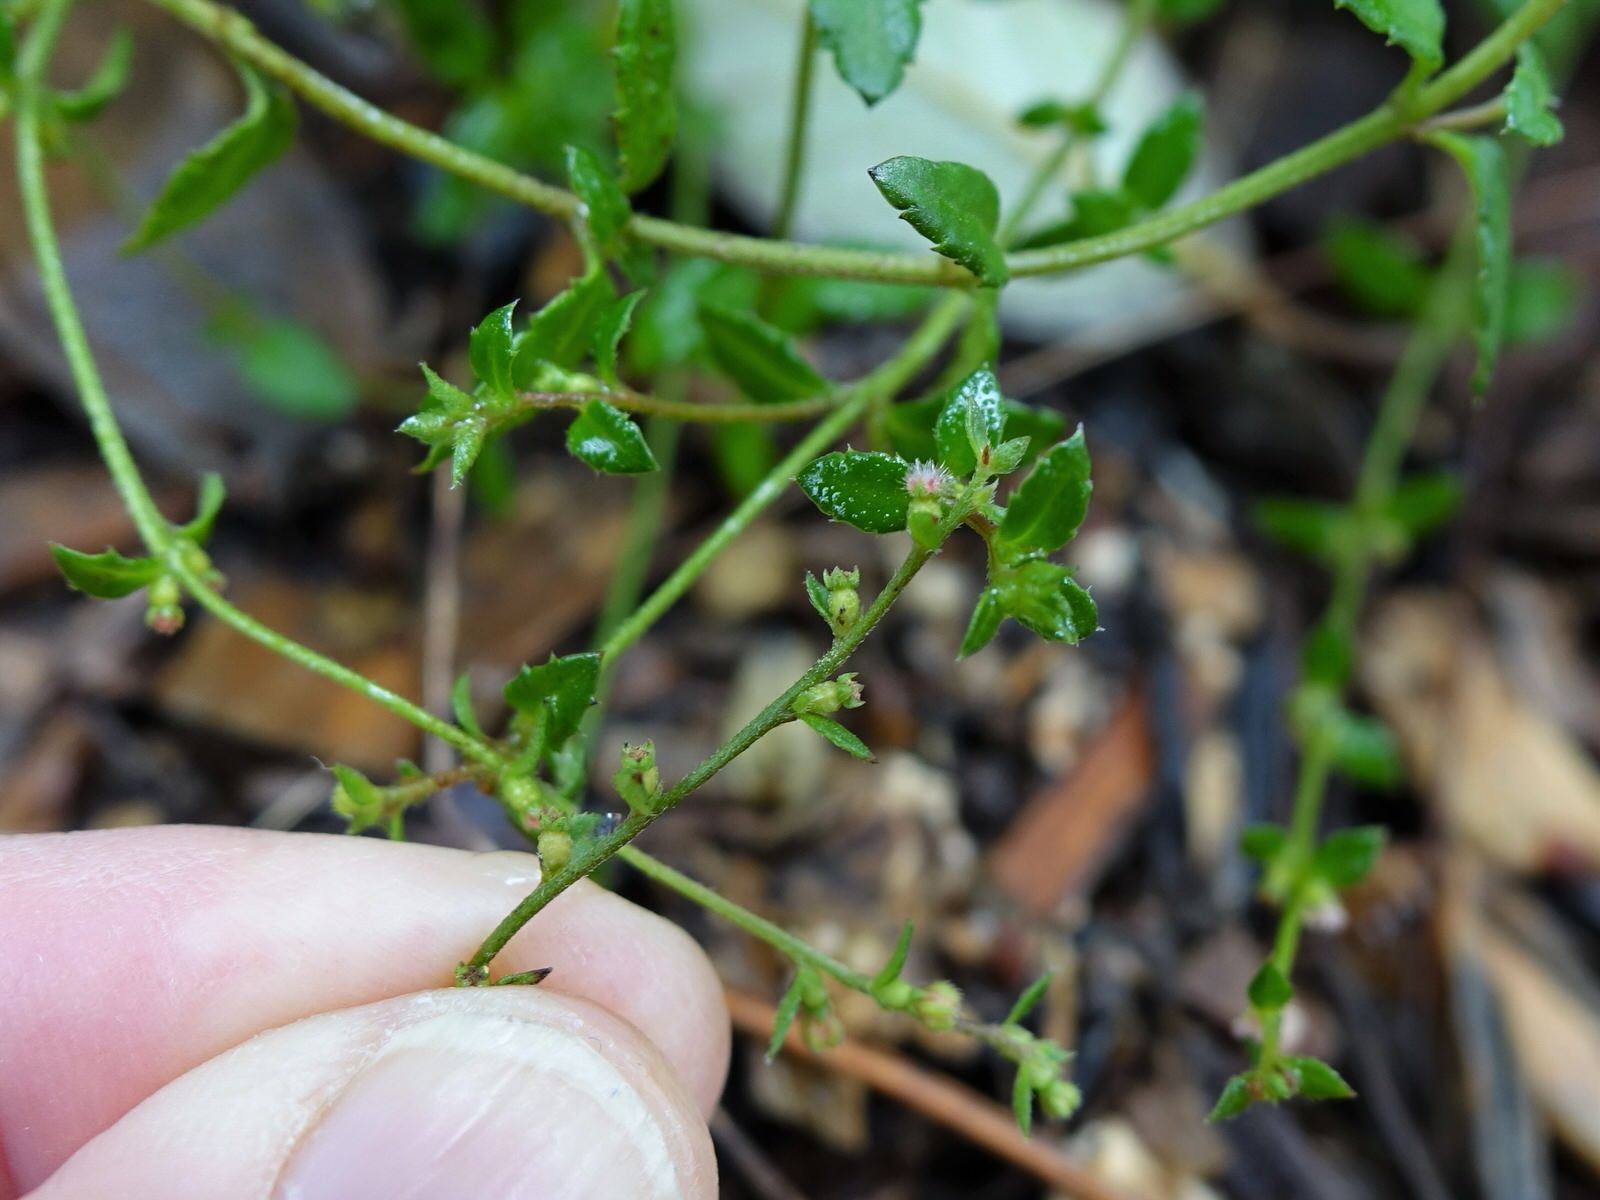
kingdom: Plantae
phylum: Tracheophyta
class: Magnoliopsida
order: Saxifragales
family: Haloragaceae
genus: Gonocarpus
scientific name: Gonocarpus incanus
